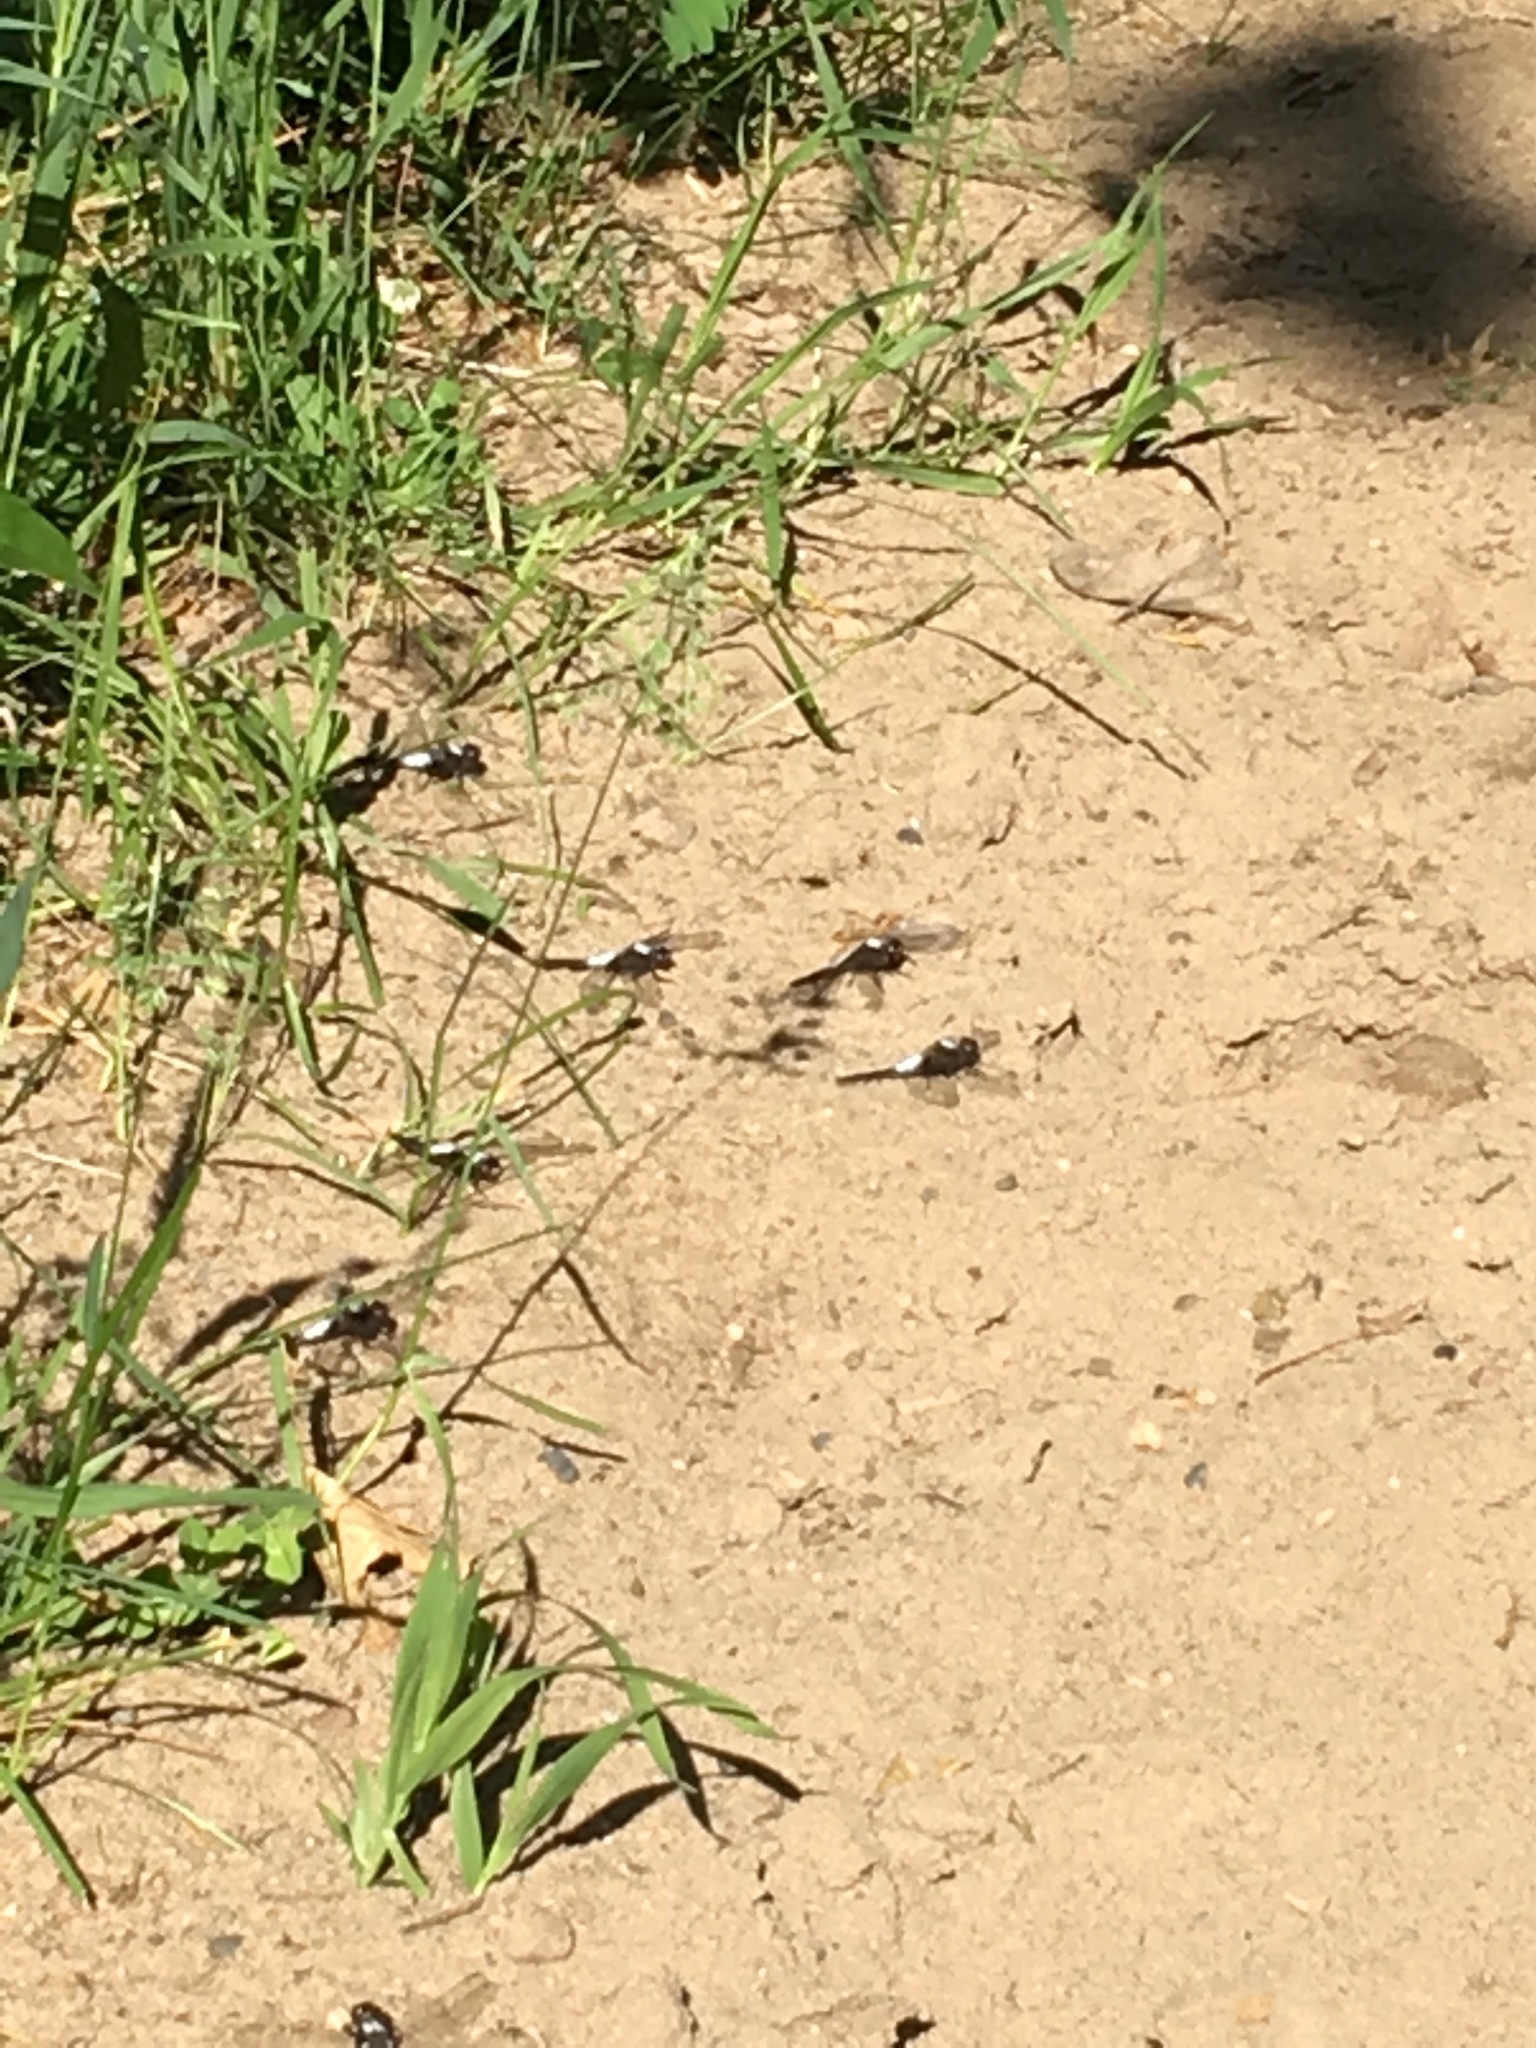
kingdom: Animalia
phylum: Arthropoda
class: Insecta
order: Odonata
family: Libellulidae
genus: Ladona
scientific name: Ladona julia
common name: Chalk-fronted corporal
